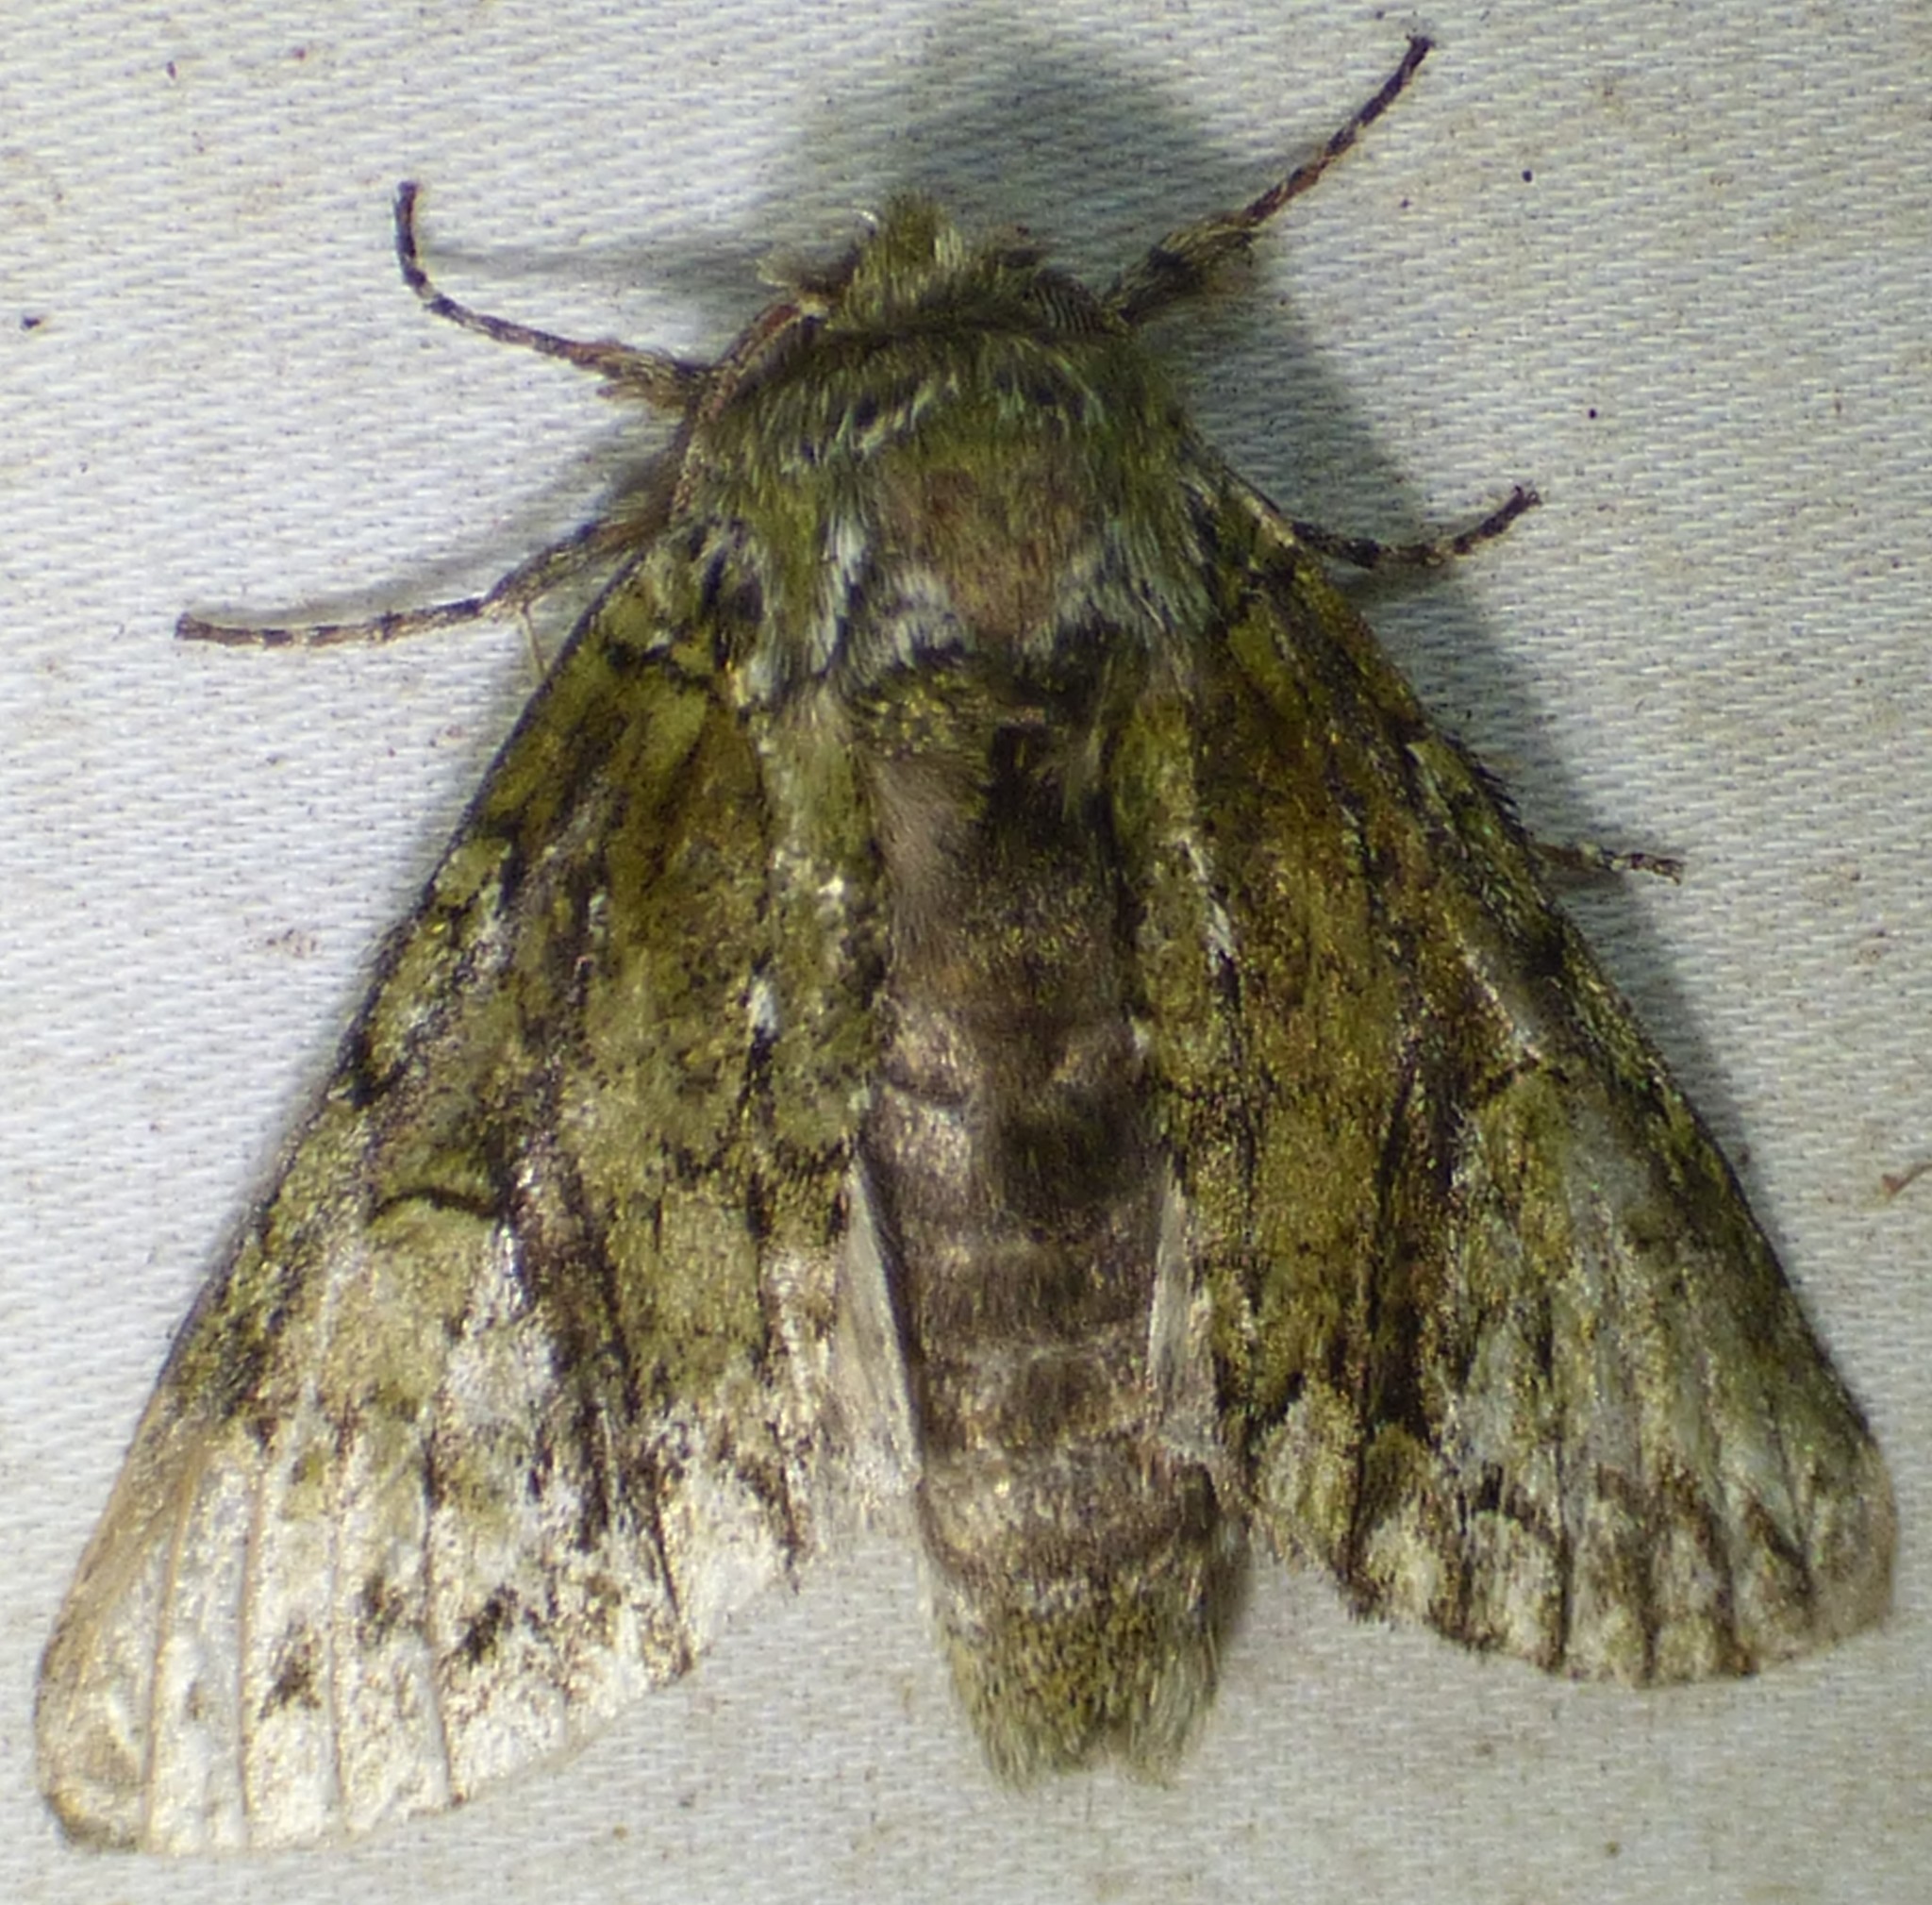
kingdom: Animalia
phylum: Arthropoda
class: Insecta
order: Lepidoptera
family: Notodontidae
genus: Heterocampa
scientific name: Heterocampa
